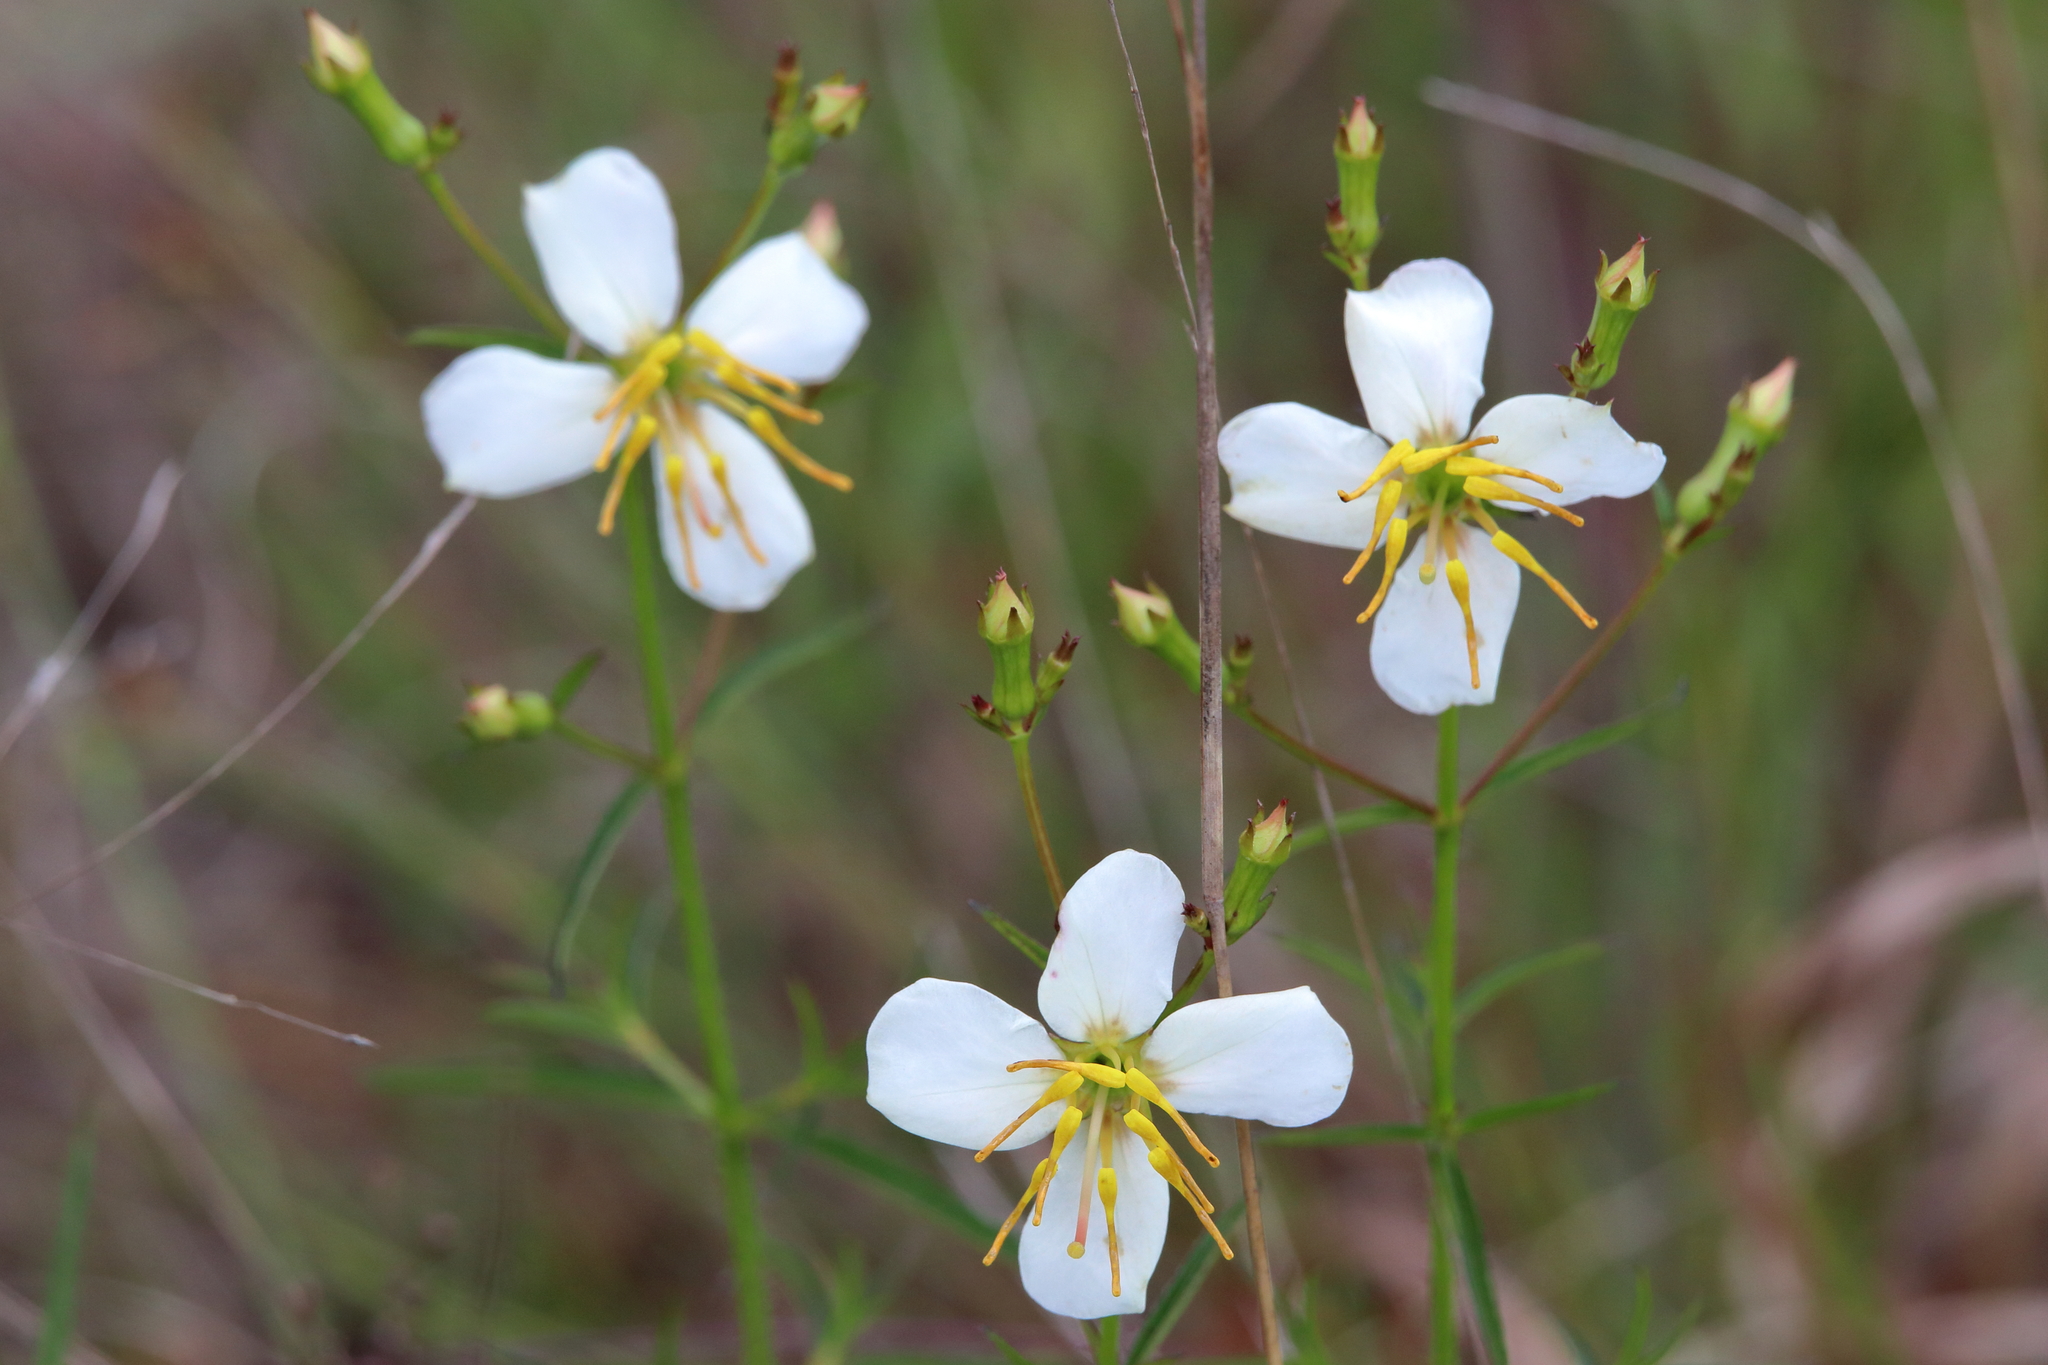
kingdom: Plantae
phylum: Tracheophyta
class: Magnoliopsida
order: Myrtales
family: Melastomataceae
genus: Rhexia
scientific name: Rhexia mariana
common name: Dull meadow-pitcher
